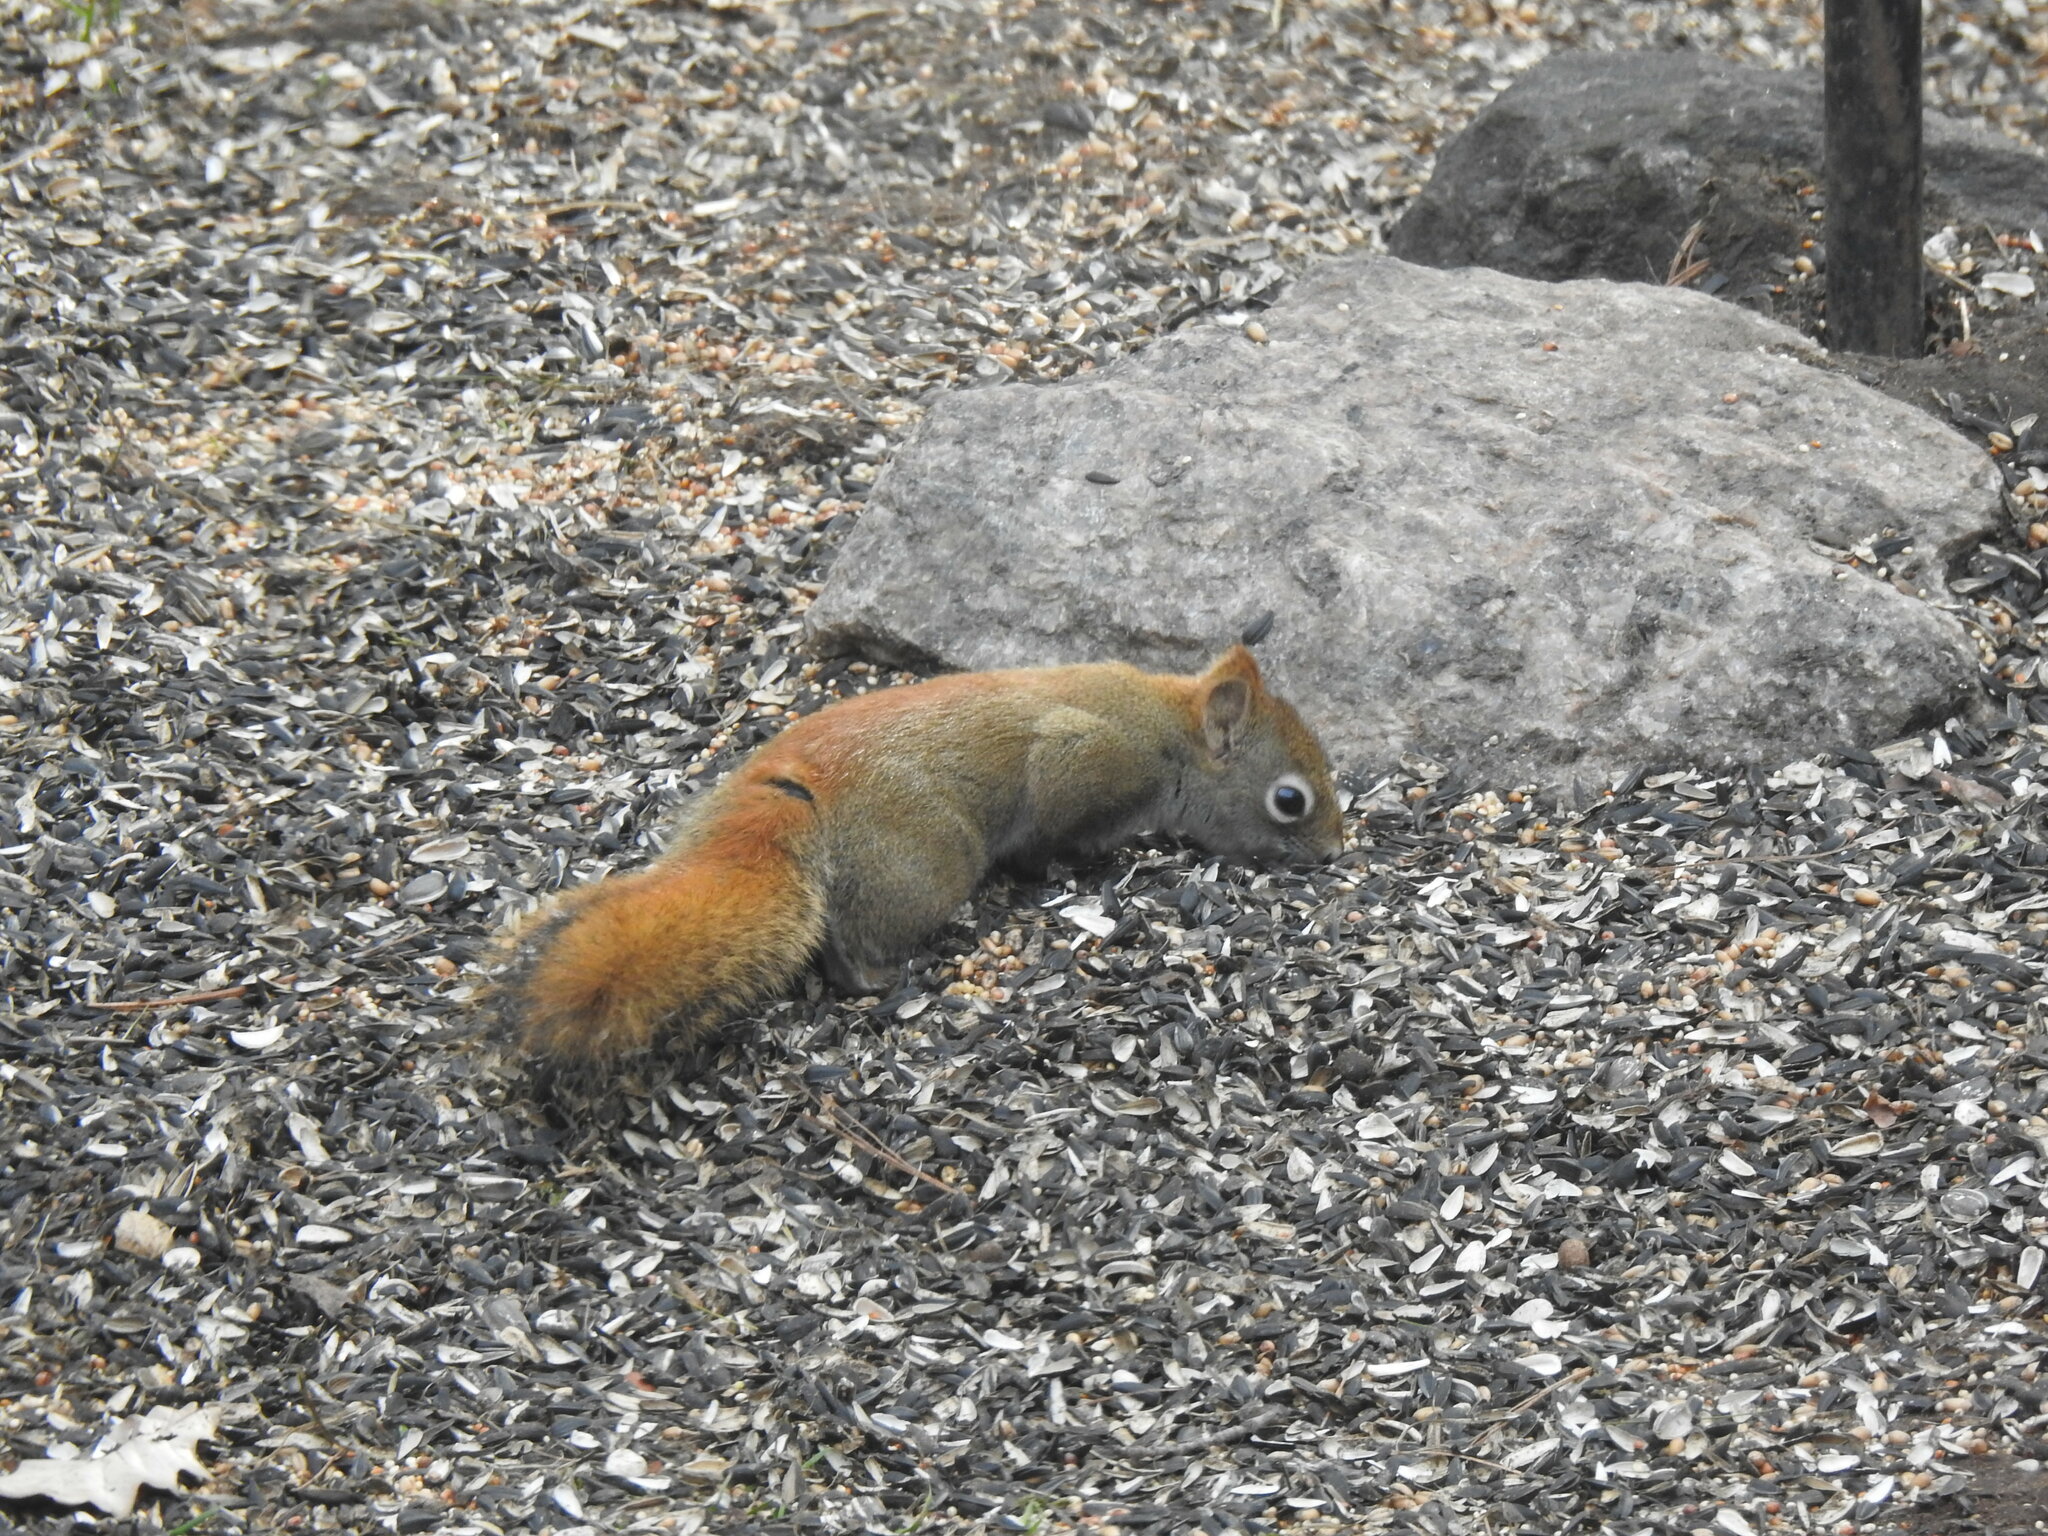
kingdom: Animalia
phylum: Chordata
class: Mammalia
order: Rodentia
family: Sciuridae
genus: Tamiasciurus
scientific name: Tamiasciurus hudsonicus
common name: Red squirrel
